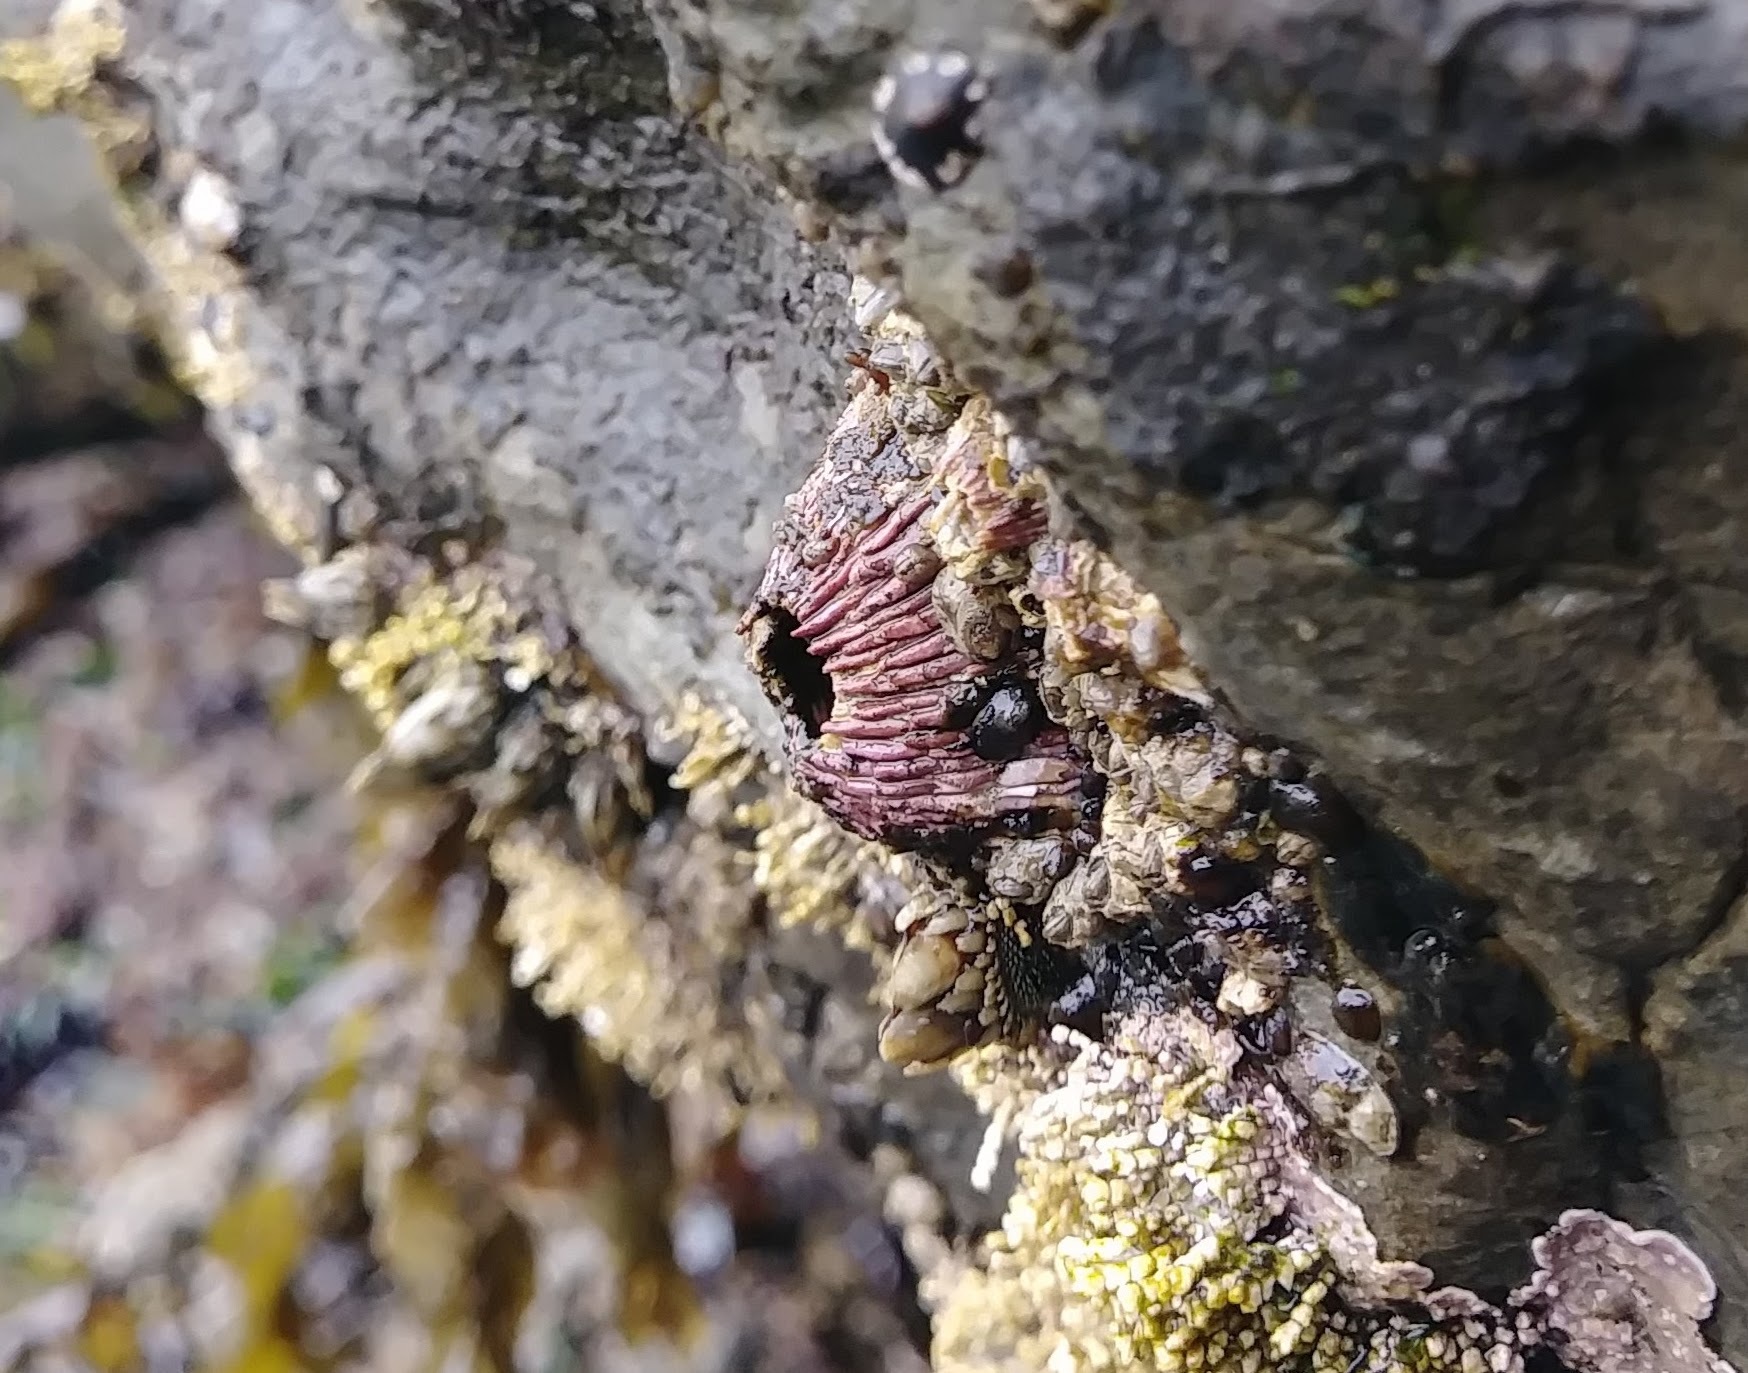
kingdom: Animalia
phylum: Arthropoda
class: Maxillopoda
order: Sessilia
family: Tetraclitidae
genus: Tetraclita
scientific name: Tetraclita rubescens
